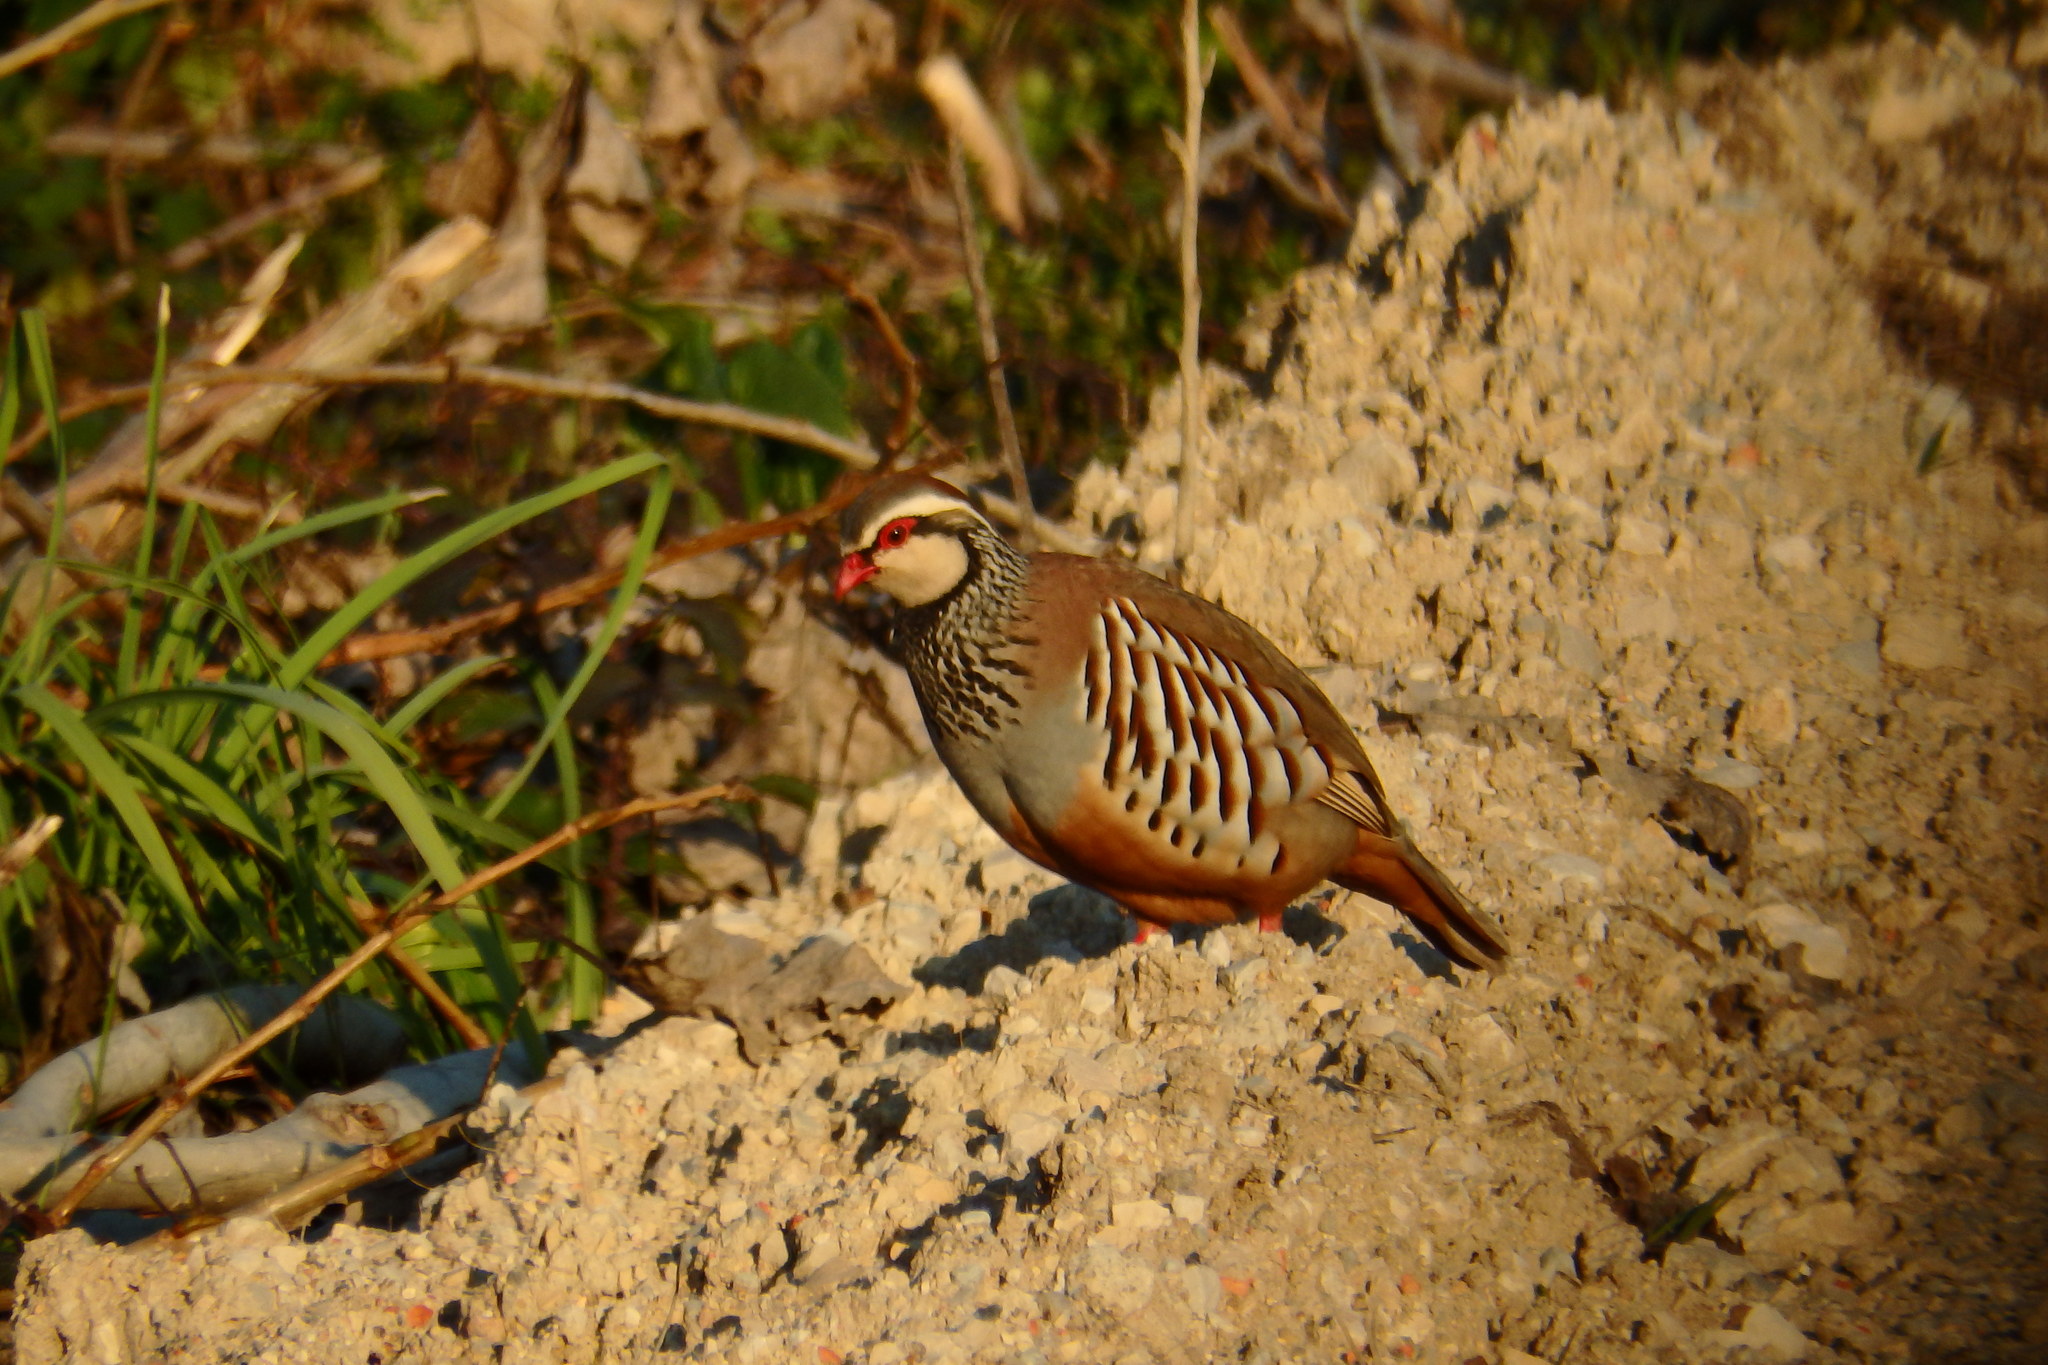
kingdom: Animalia
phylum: Chordata
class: Aves
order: Galliformes
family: Phasianidae
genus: Alectoris
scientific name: Alectoris rufa
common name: Red-legged partridge
